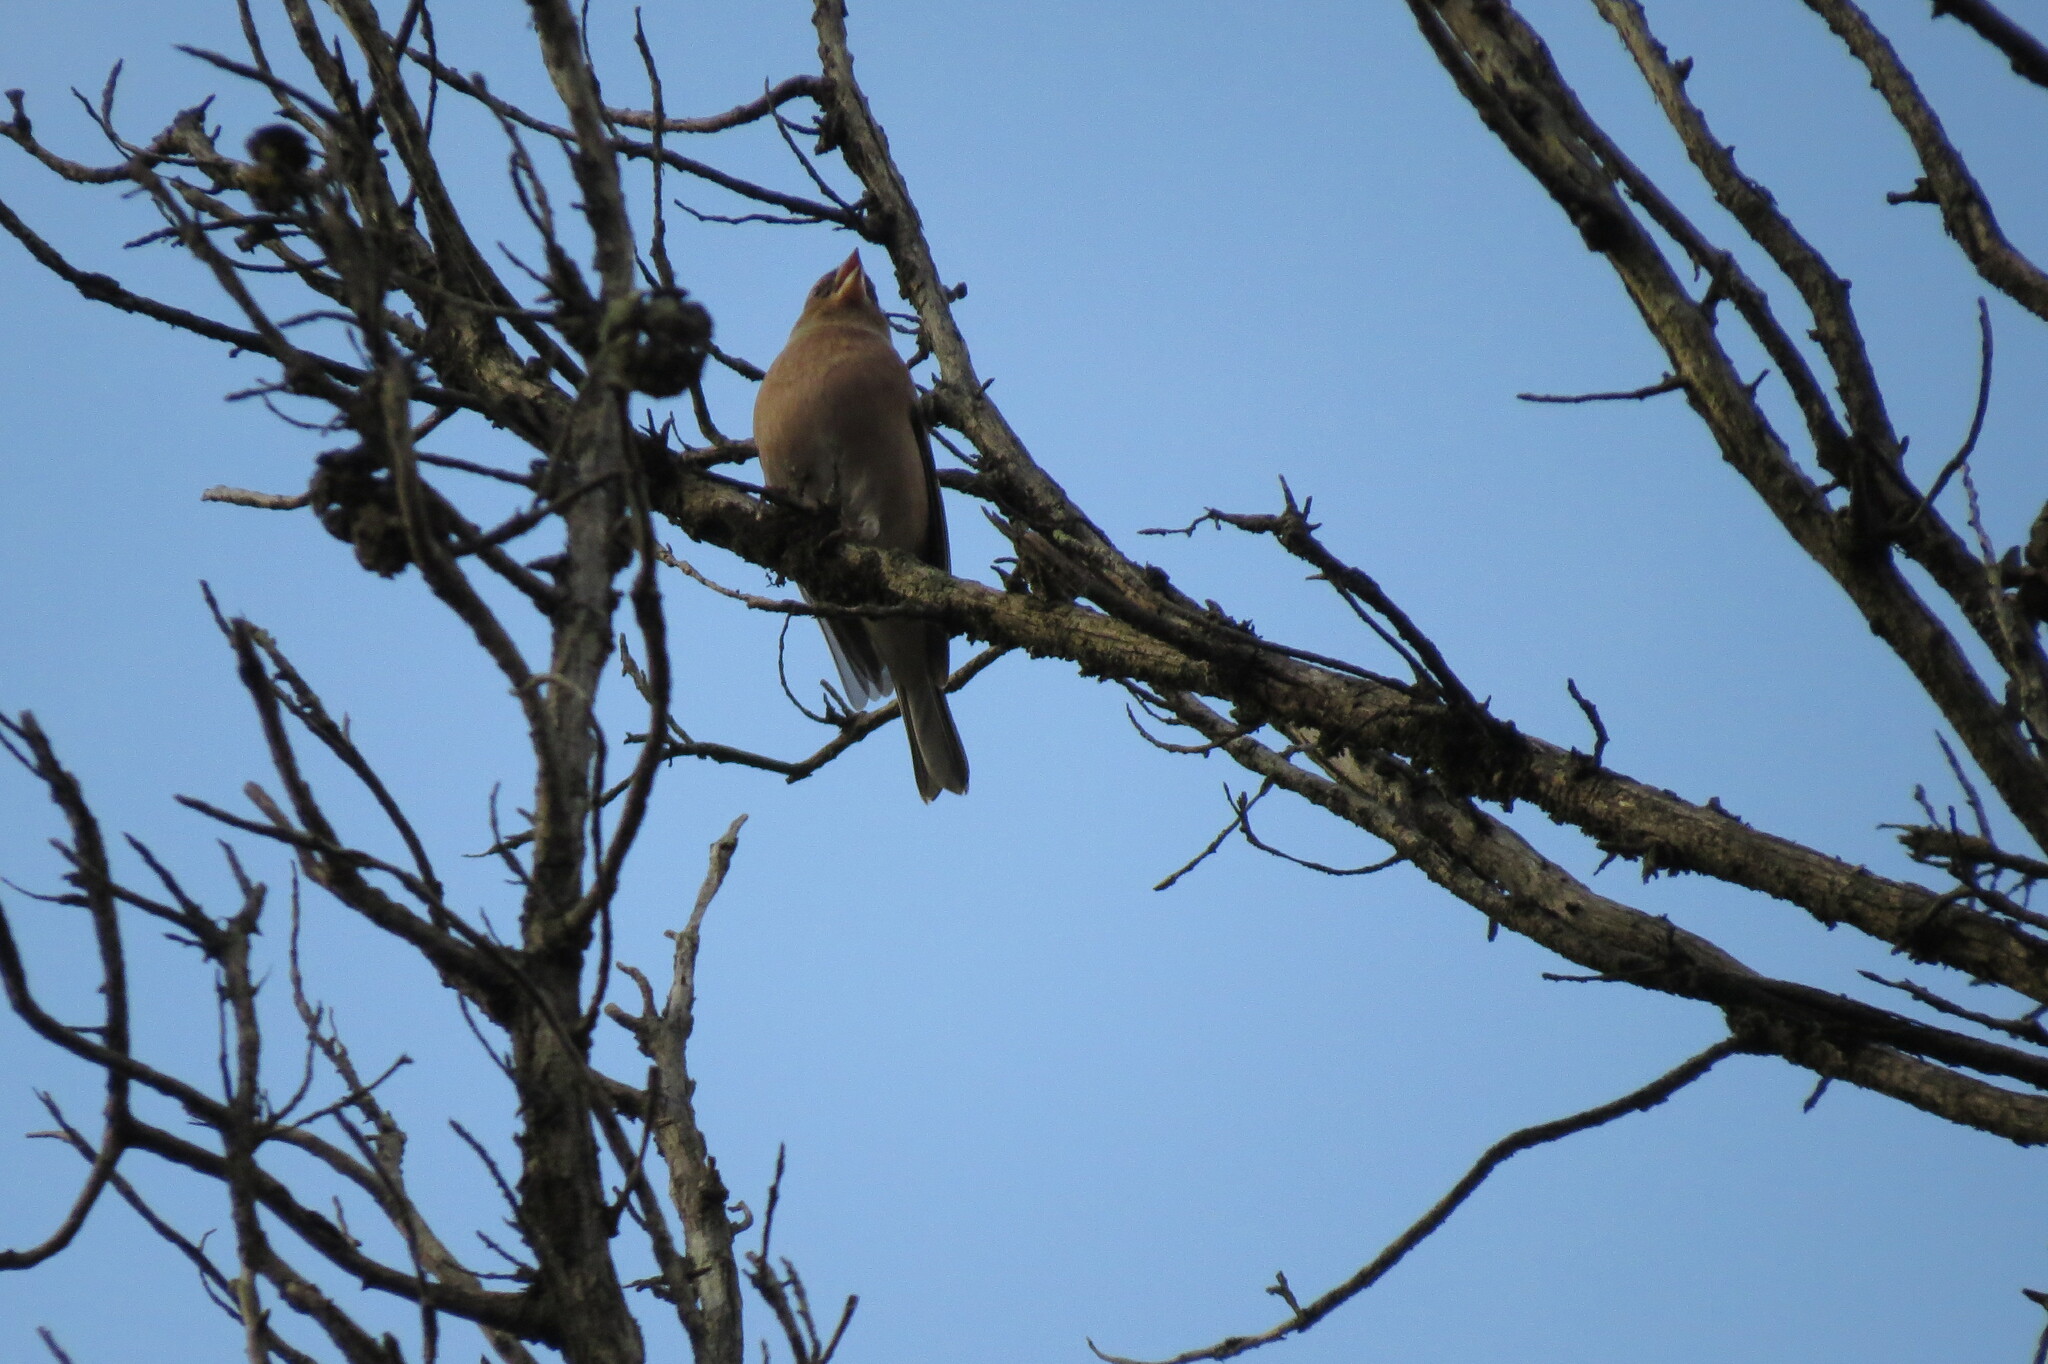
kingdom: Animalia
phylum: Chordata
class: Aves
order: Passeriformes
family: Fringillidae
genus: Fringilla
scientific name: Fringilla coelebs
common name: Common chaffinch
